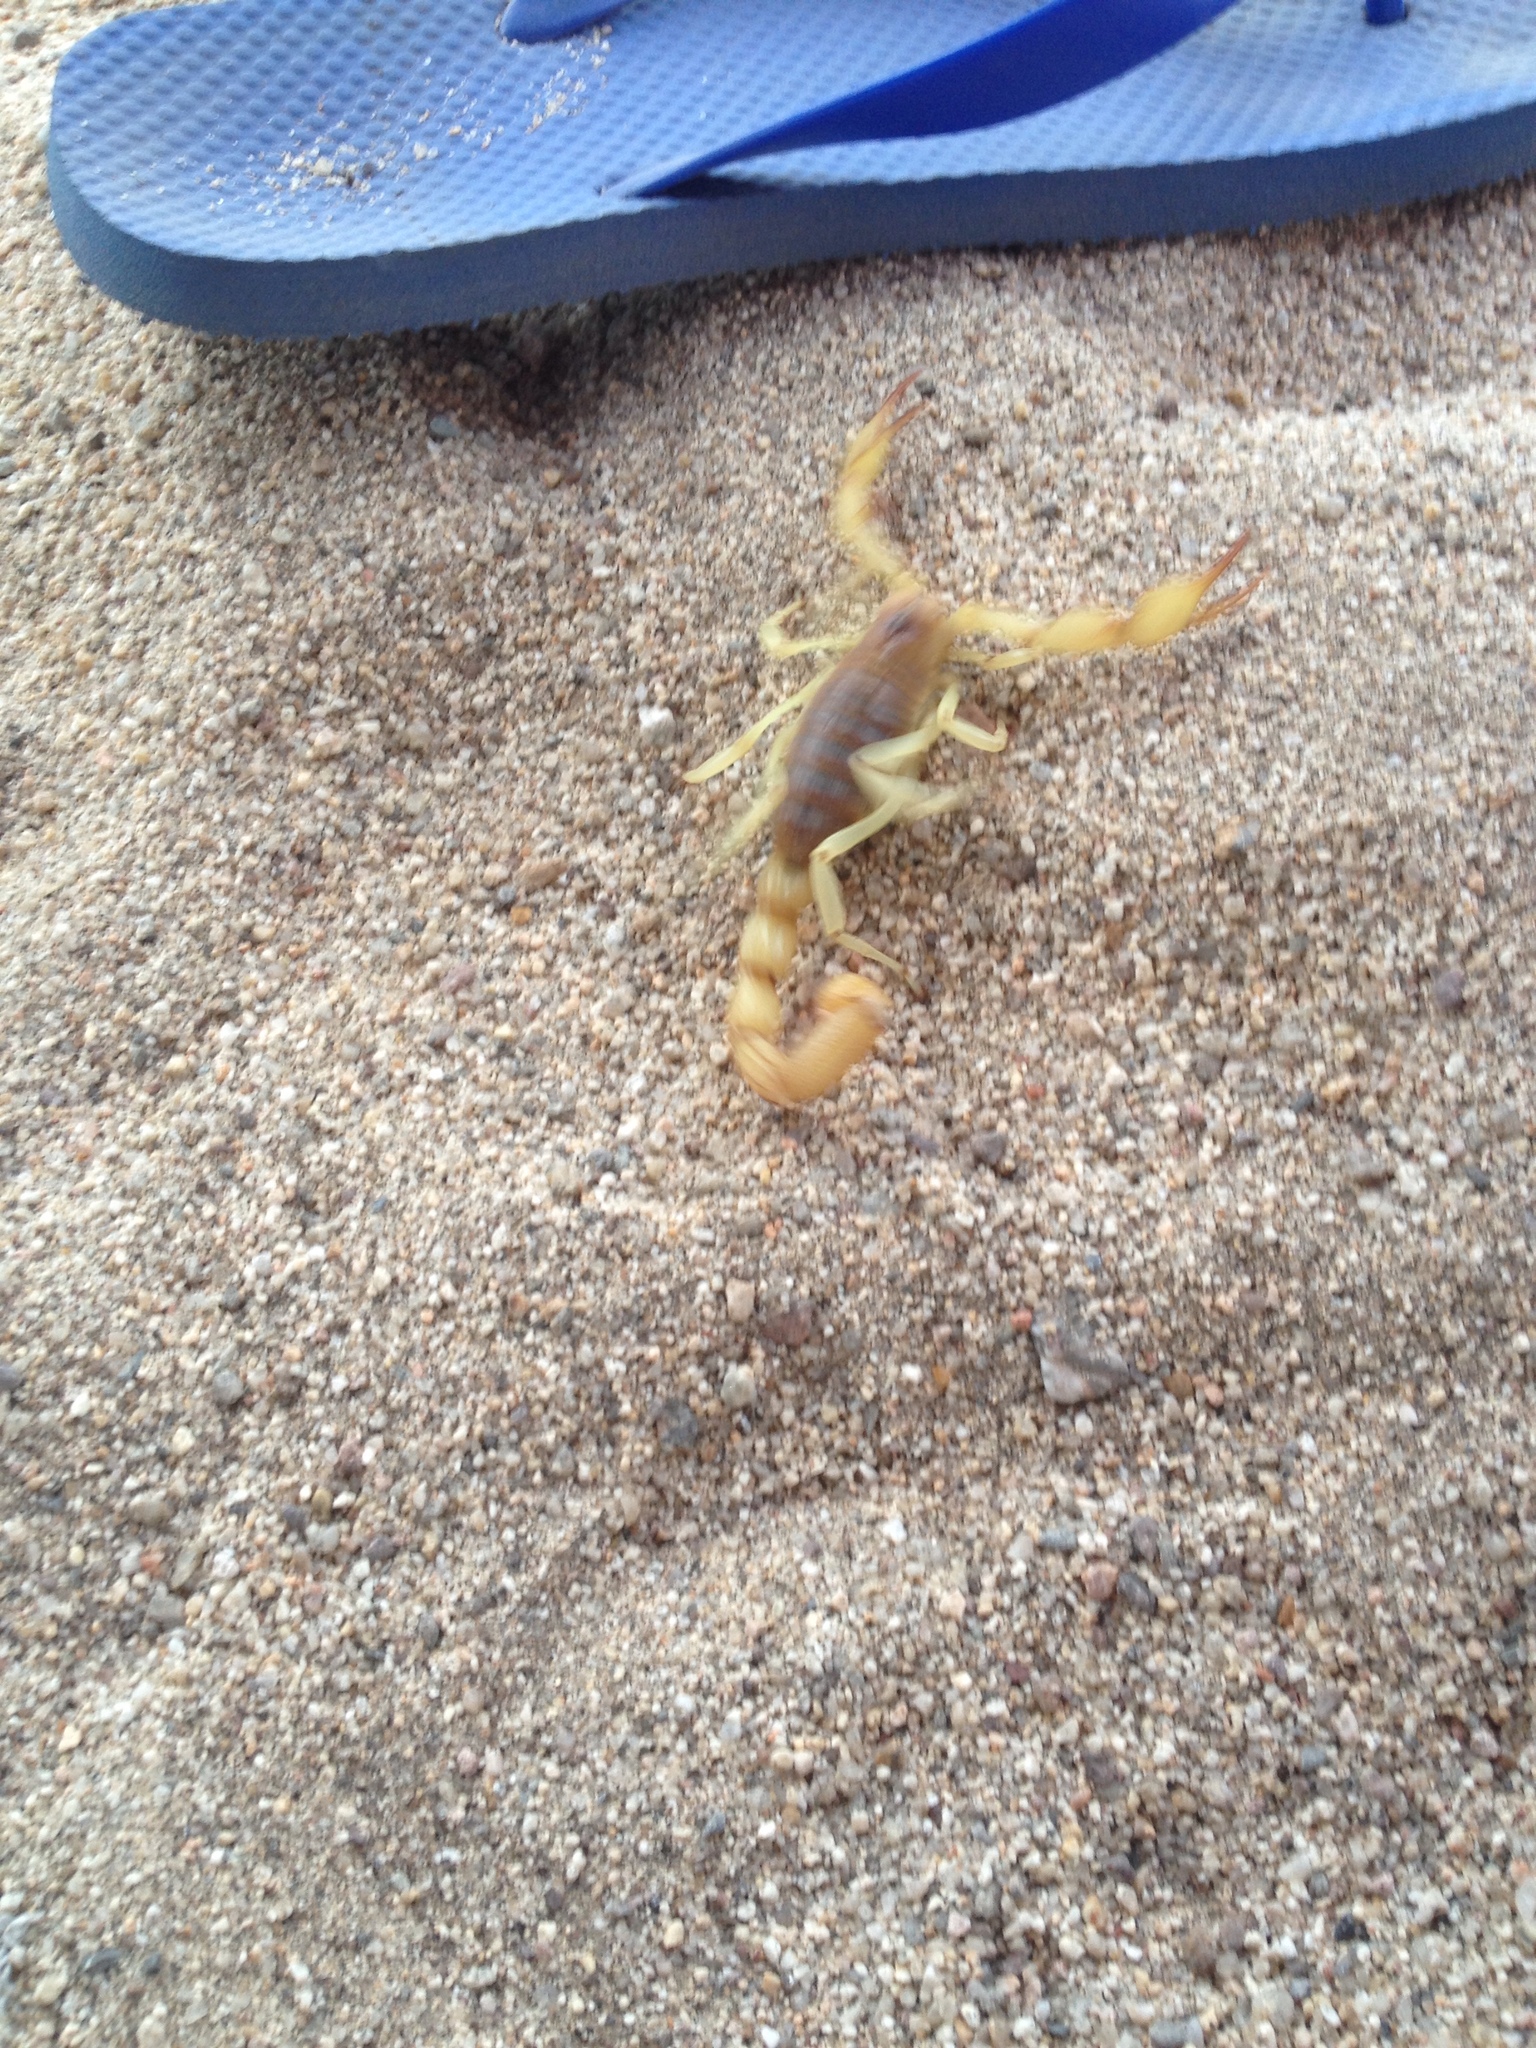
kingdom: Animalia
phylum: Arthropoda
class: Arachnida
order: Scorpiones
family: Hadruridae
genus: Hadrurus
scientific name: Hadrurus concolorous
